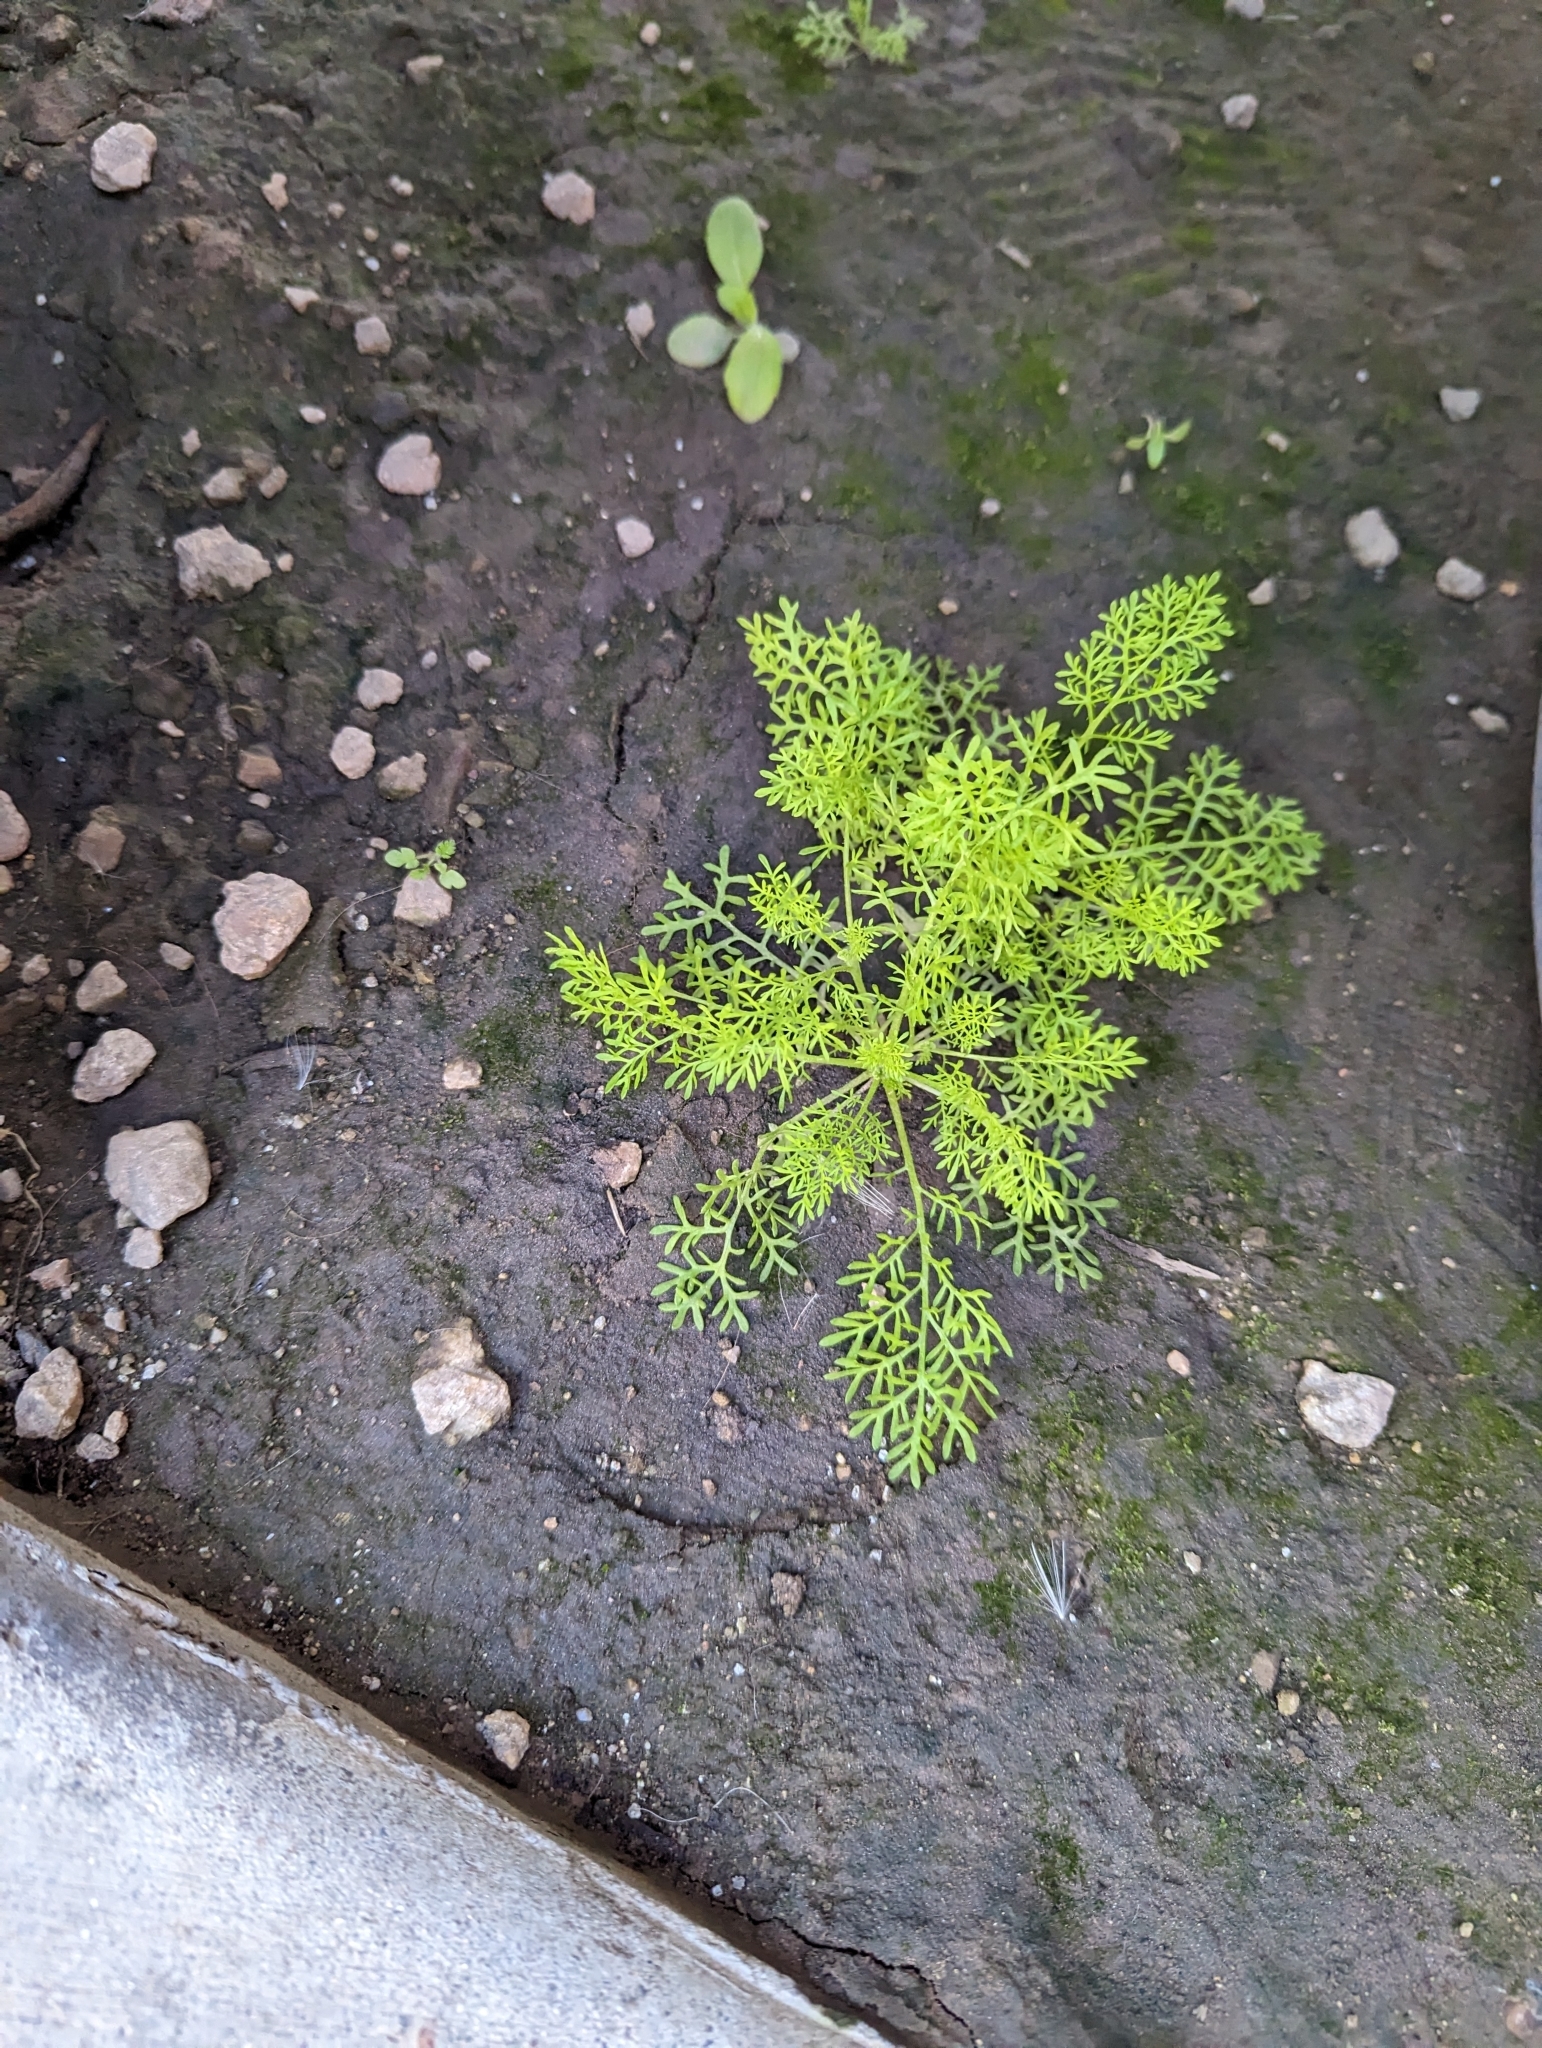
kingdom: Plantae
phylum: Tracheophyta
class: Magnoliopsida
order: Asterales
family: Asteraceae
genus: Oncosiphon
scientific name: Oncosiphon pilulifer
